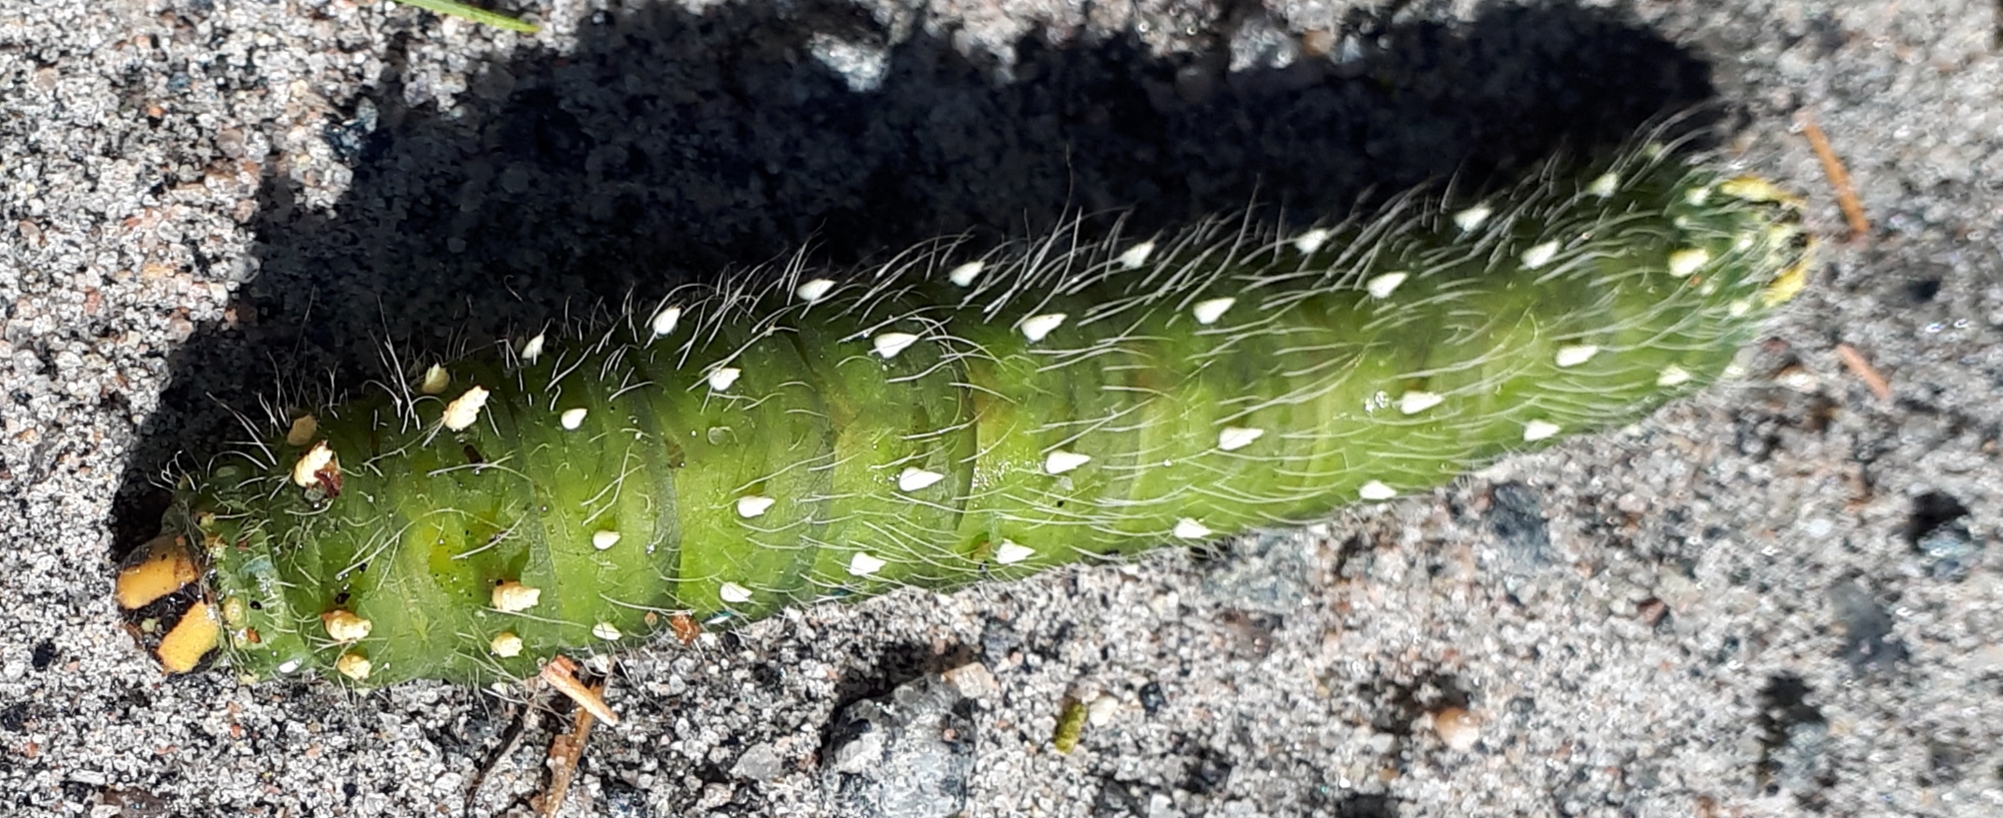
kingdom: Animalia
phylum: Arthropoda
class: Insecta
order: Lepidoptera
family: Saturniidae
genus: Eacles
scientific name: Eacles
